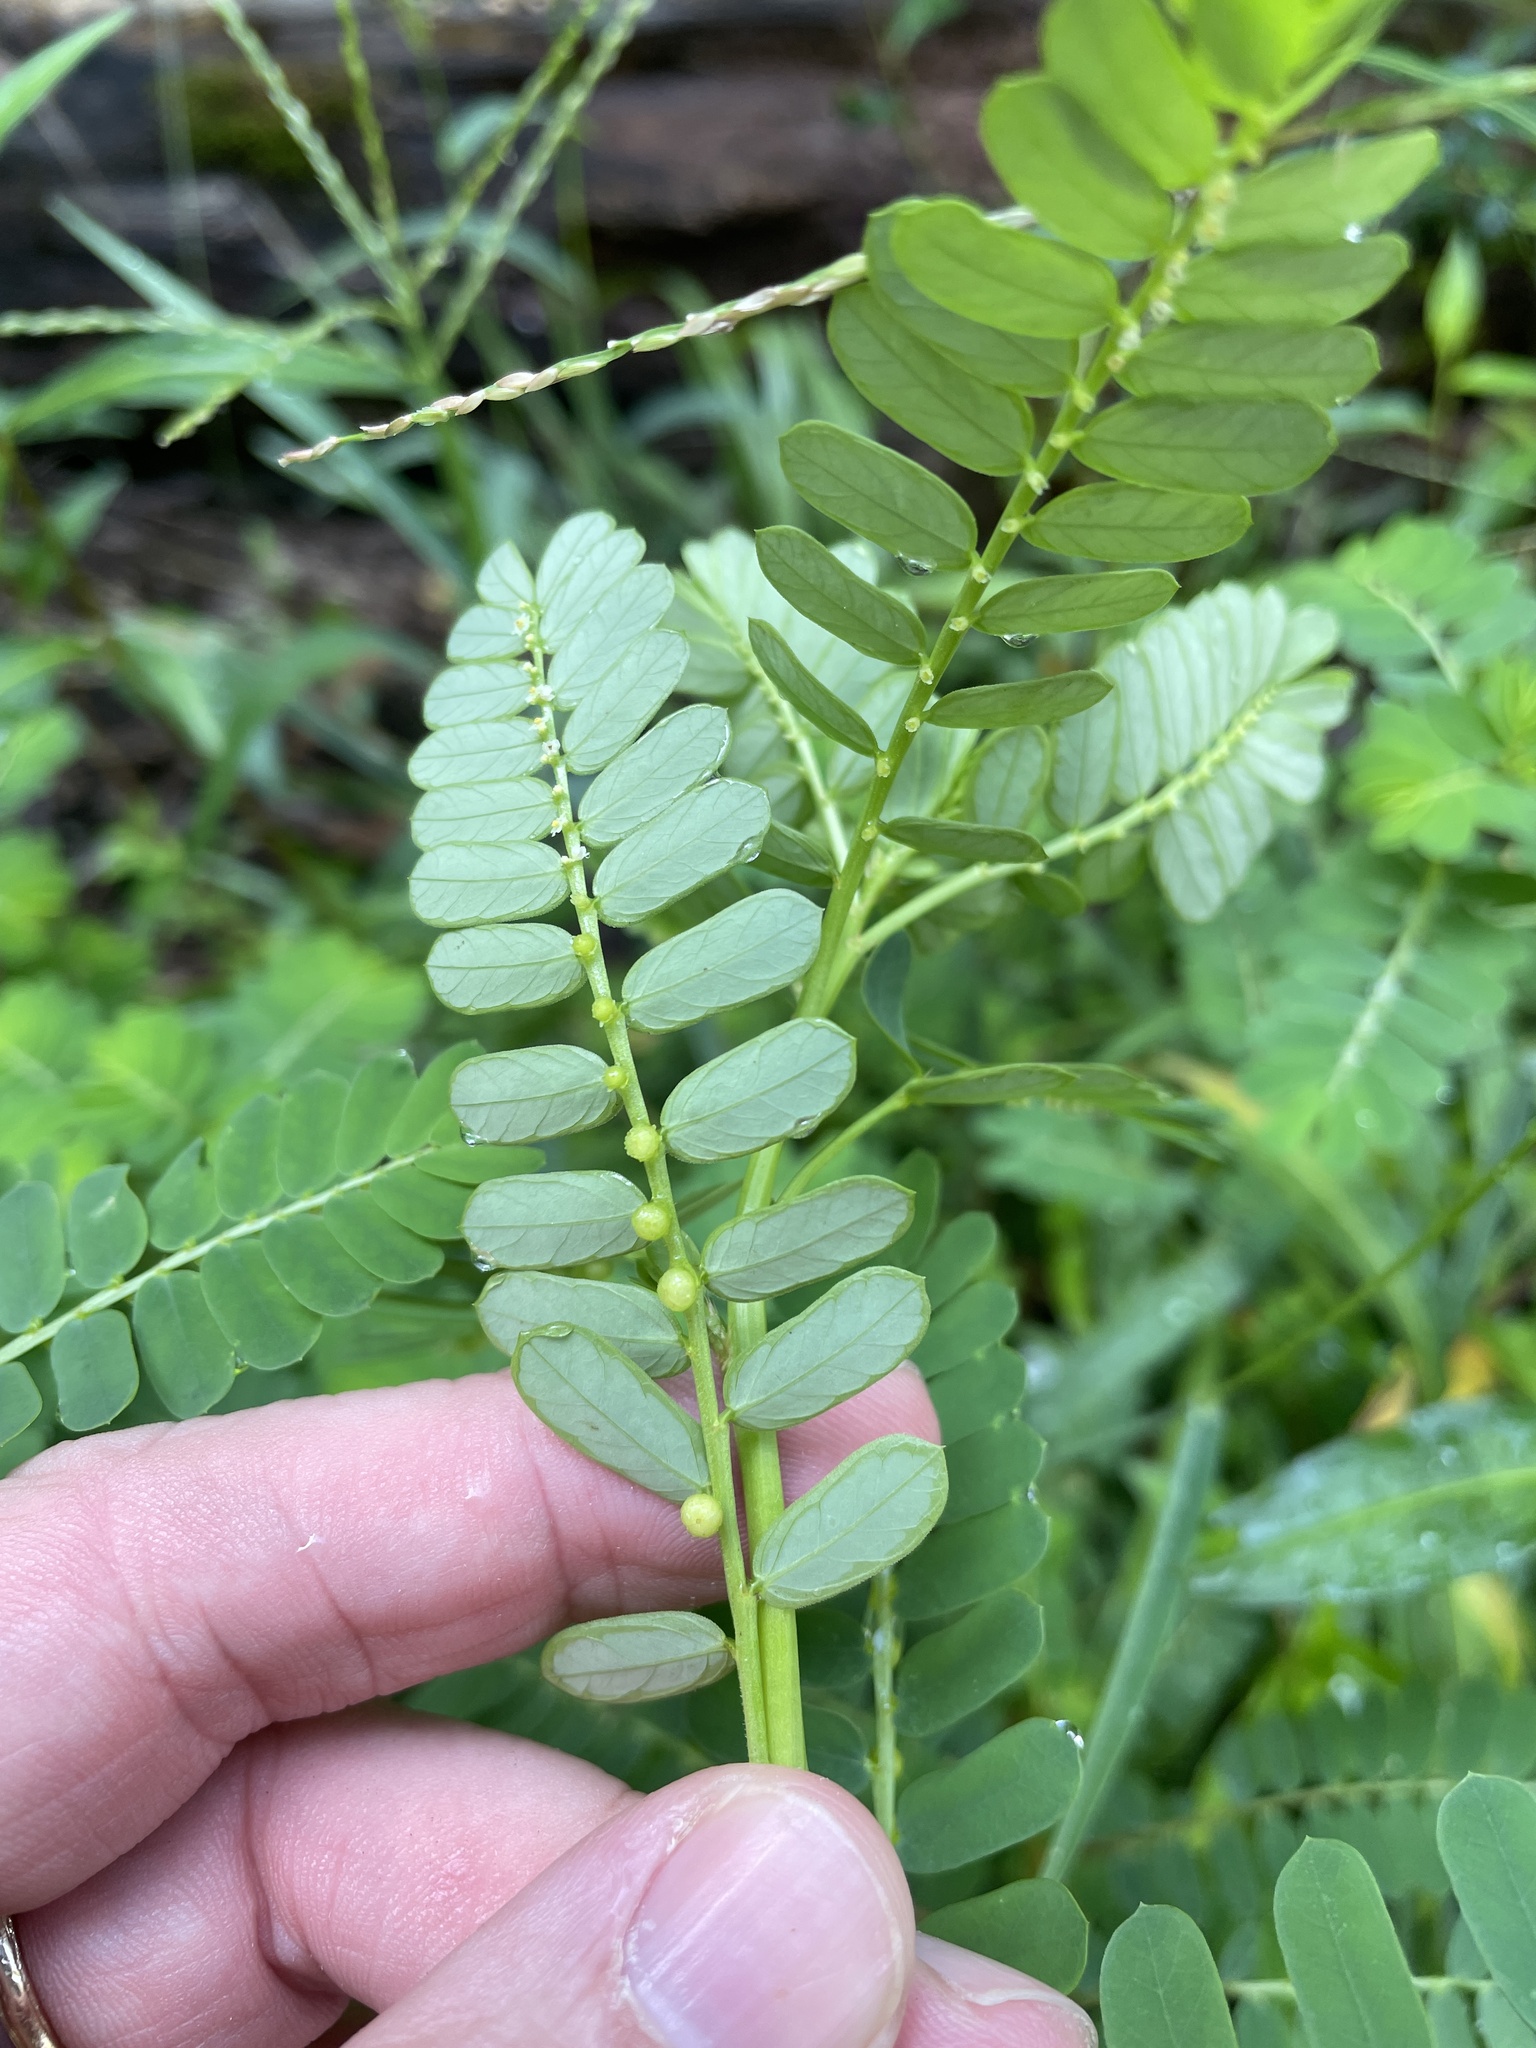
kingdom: Plantae
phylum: Tracheophyta
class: Magnoliopsida
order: Malpighiales
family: Phyllanthaceae
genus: Phyllanthus
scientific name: Phyllanthus urinaria
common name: Chamber bitter
